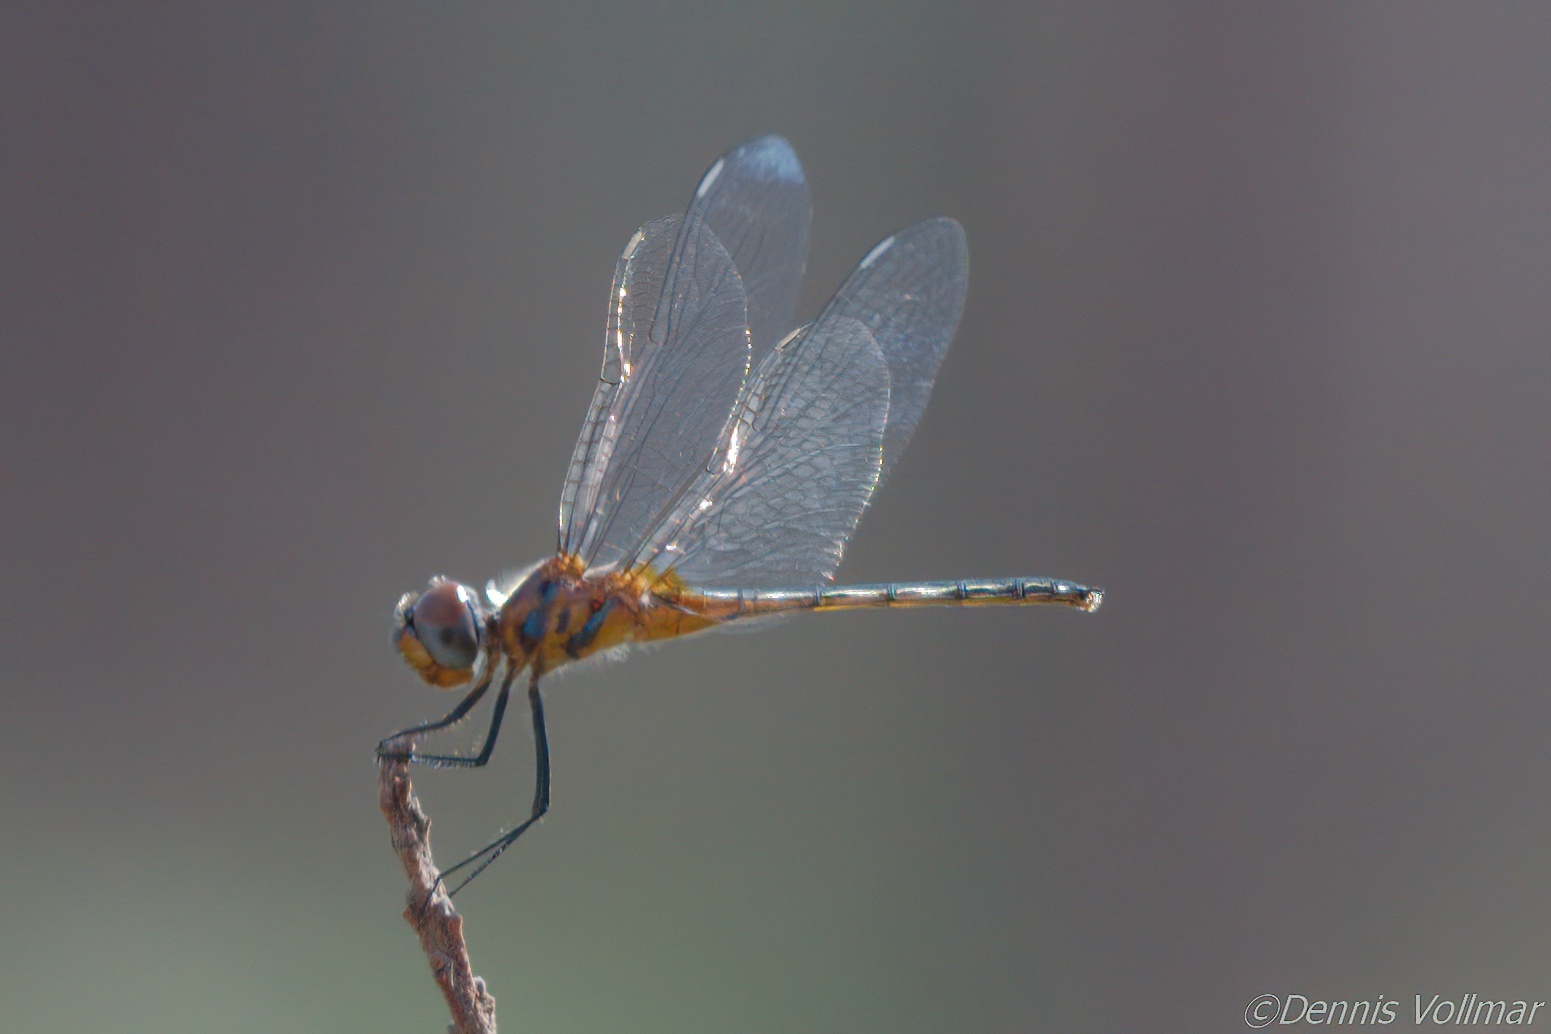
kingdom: Animalia
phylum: Arthropoda
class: Insecta
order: Odonata
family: Libellulidae
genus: Idiataphe
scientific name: Idiataphe cubensis
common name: Metallic pennant
